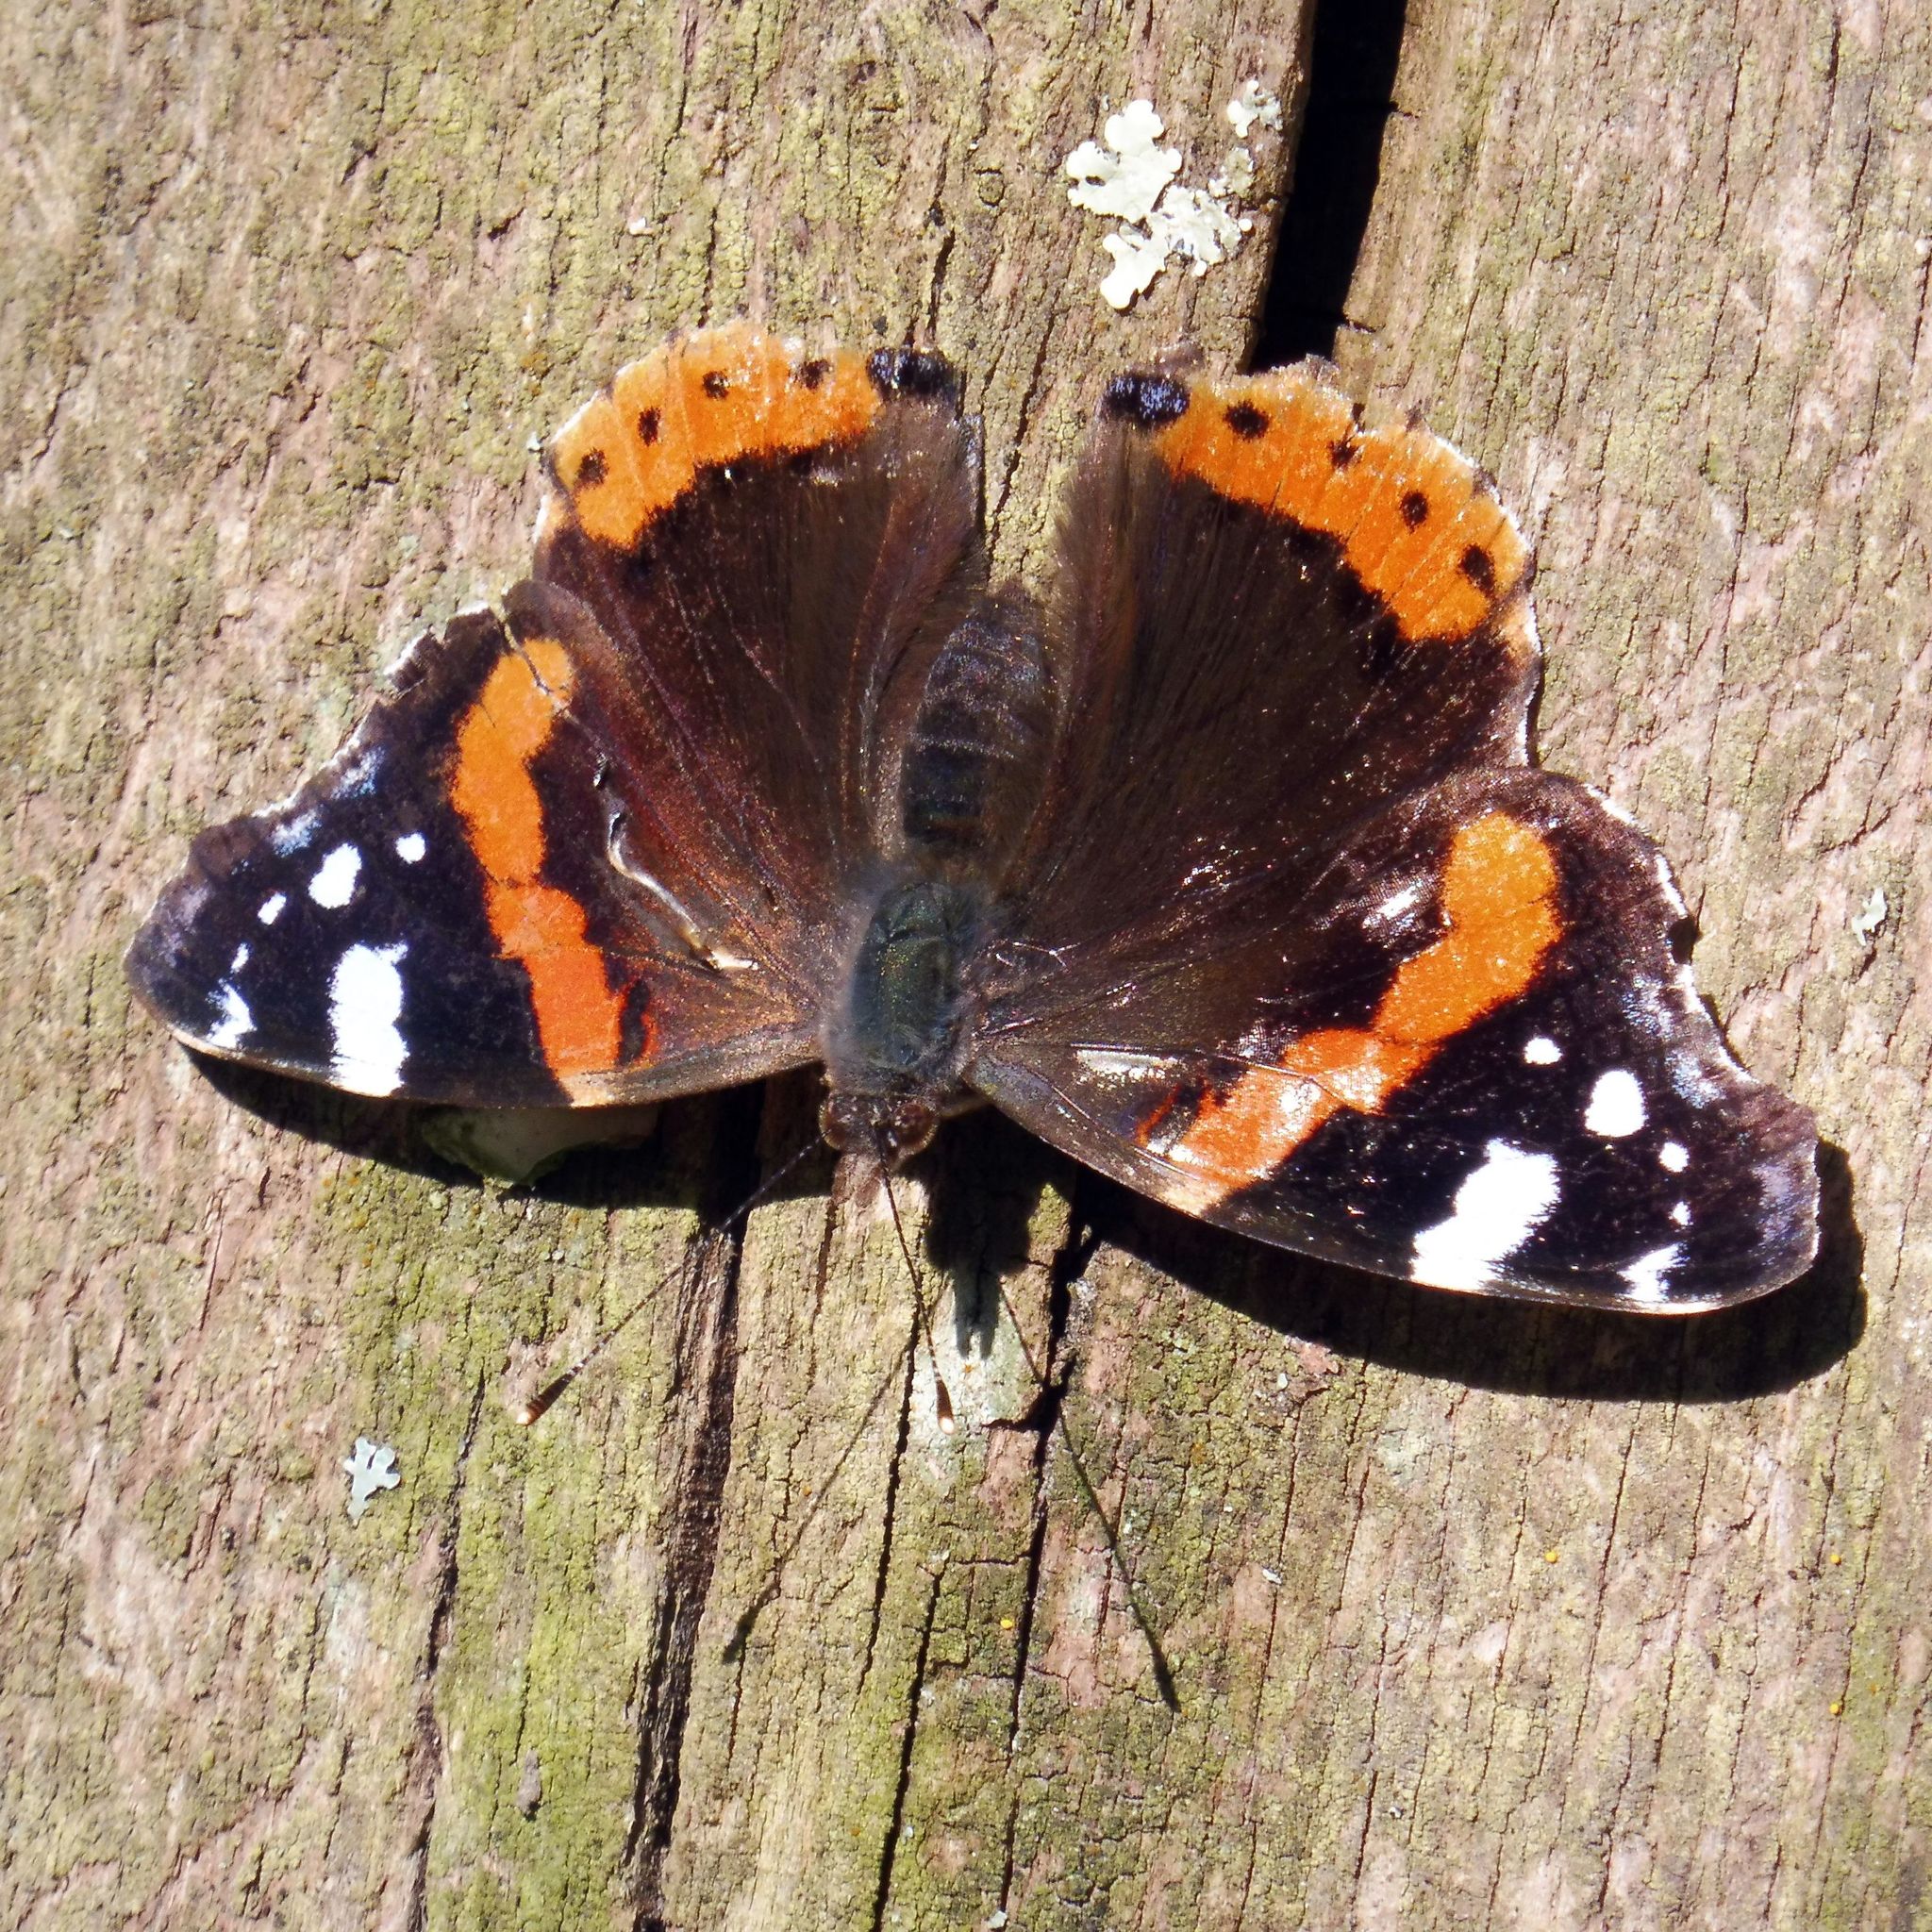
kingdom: Animalia
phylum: Arthropoda
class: Insecta
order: Lepidoptera
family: Nymphalidae
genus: Vanessa
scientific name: Vanessa atalanta
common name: Red admiral
